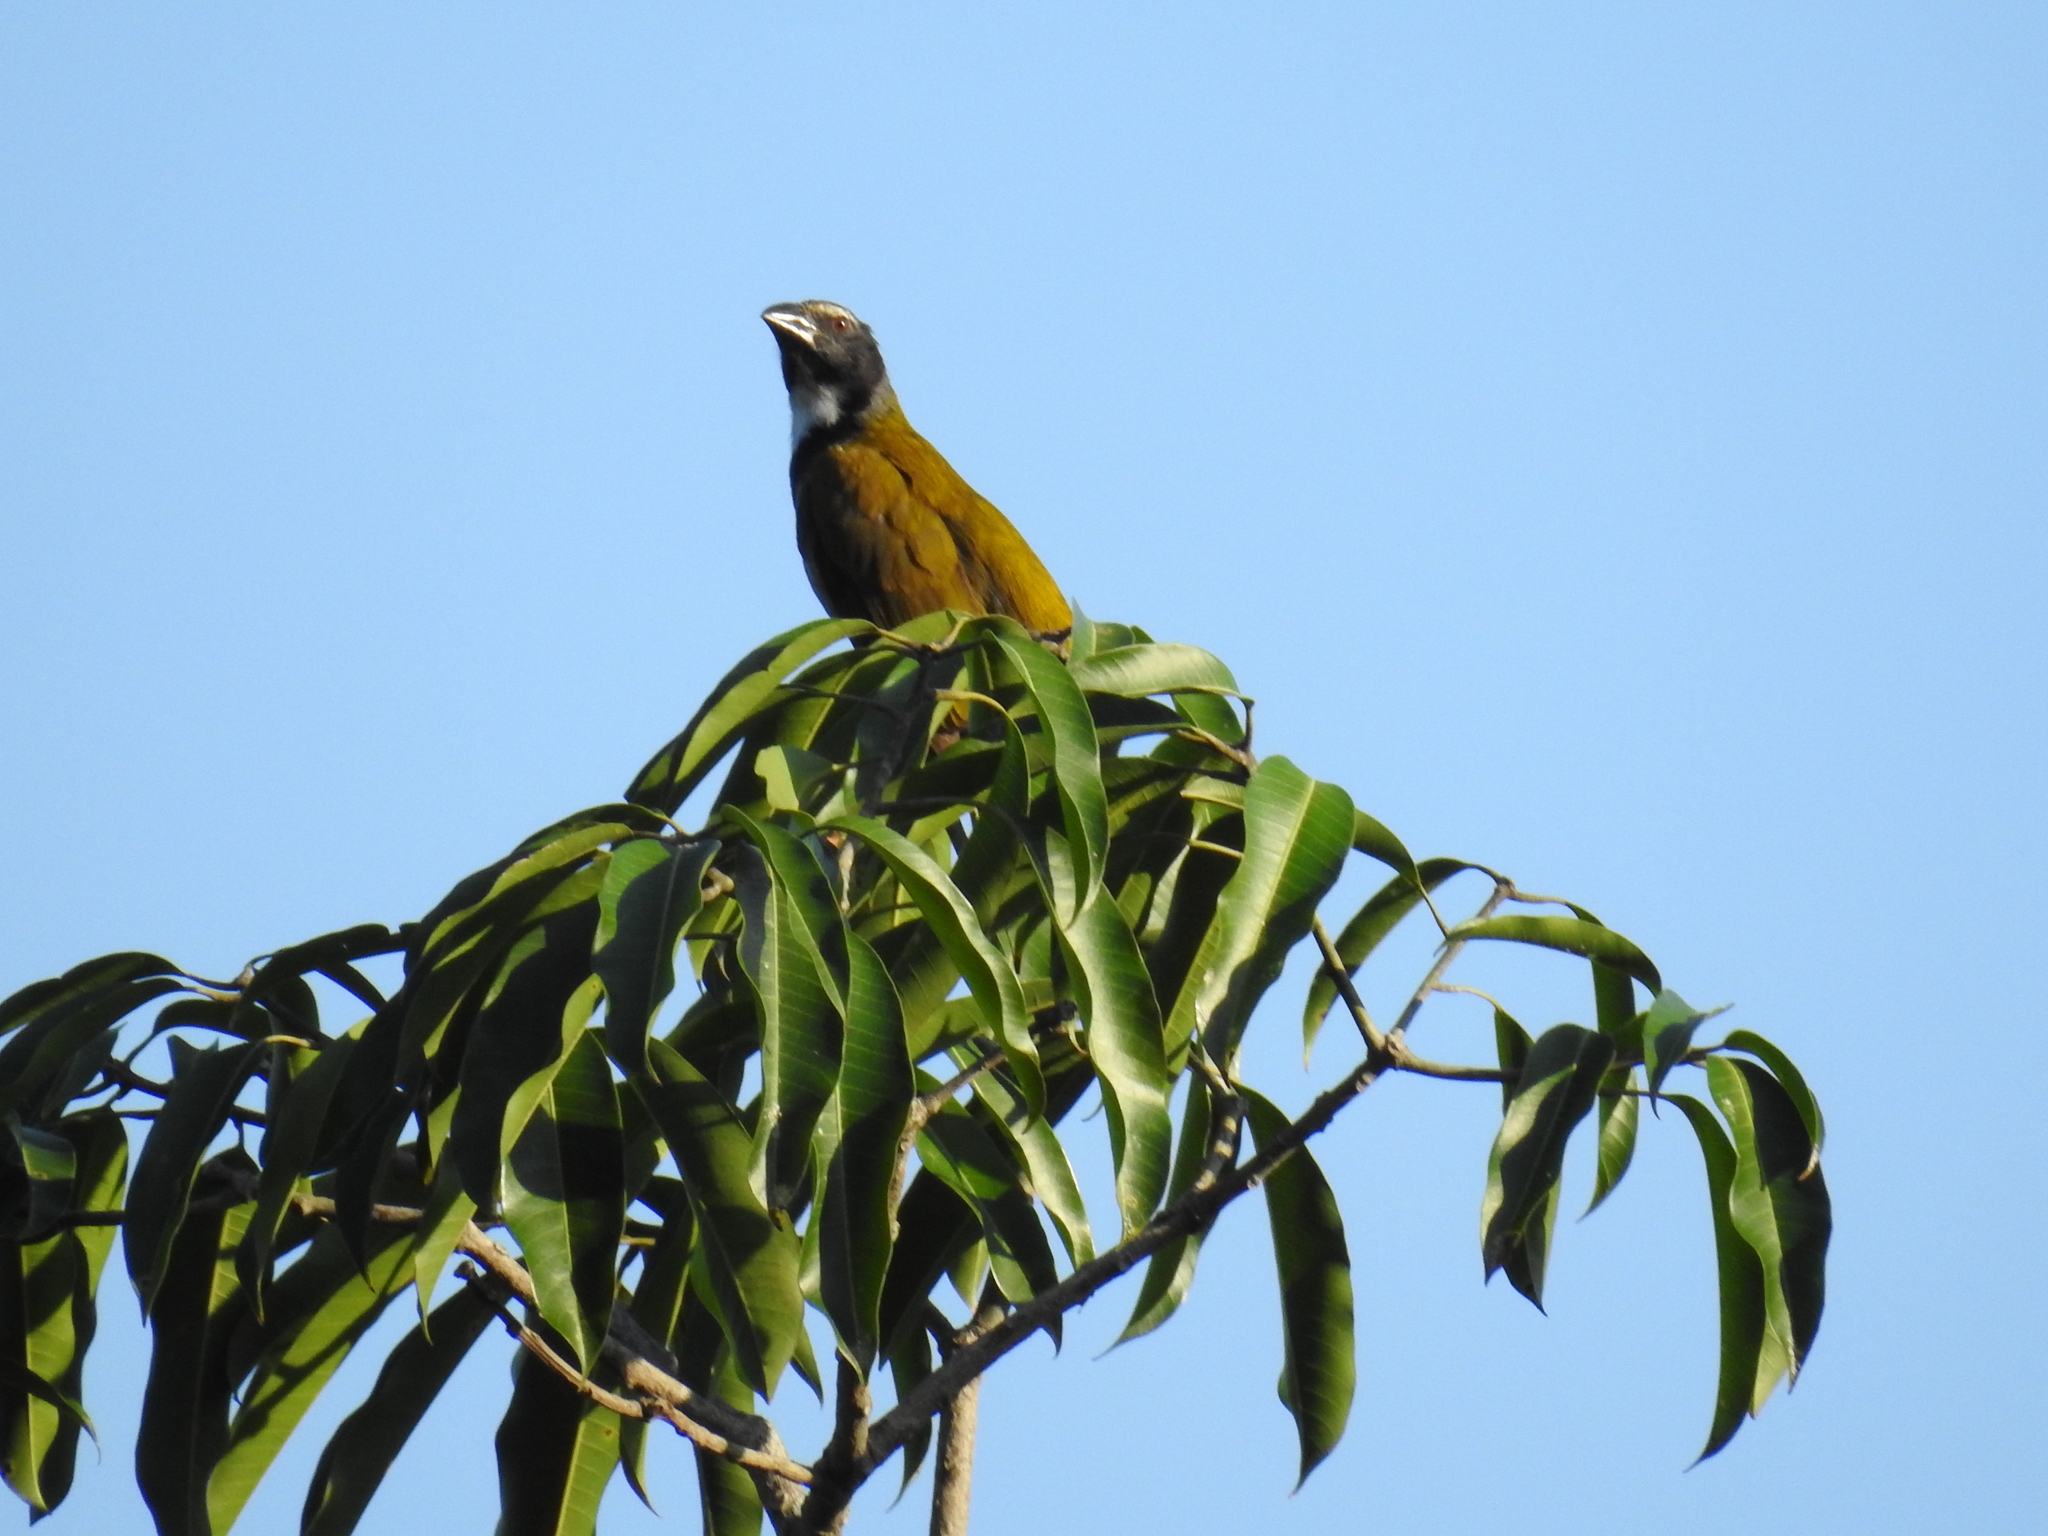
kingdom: Animalia
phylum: Chordata
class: Aves
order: Passeriformes
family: Thraupidae
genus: Saltator
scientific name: Saltator atriceps
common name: Black-headed saltator
